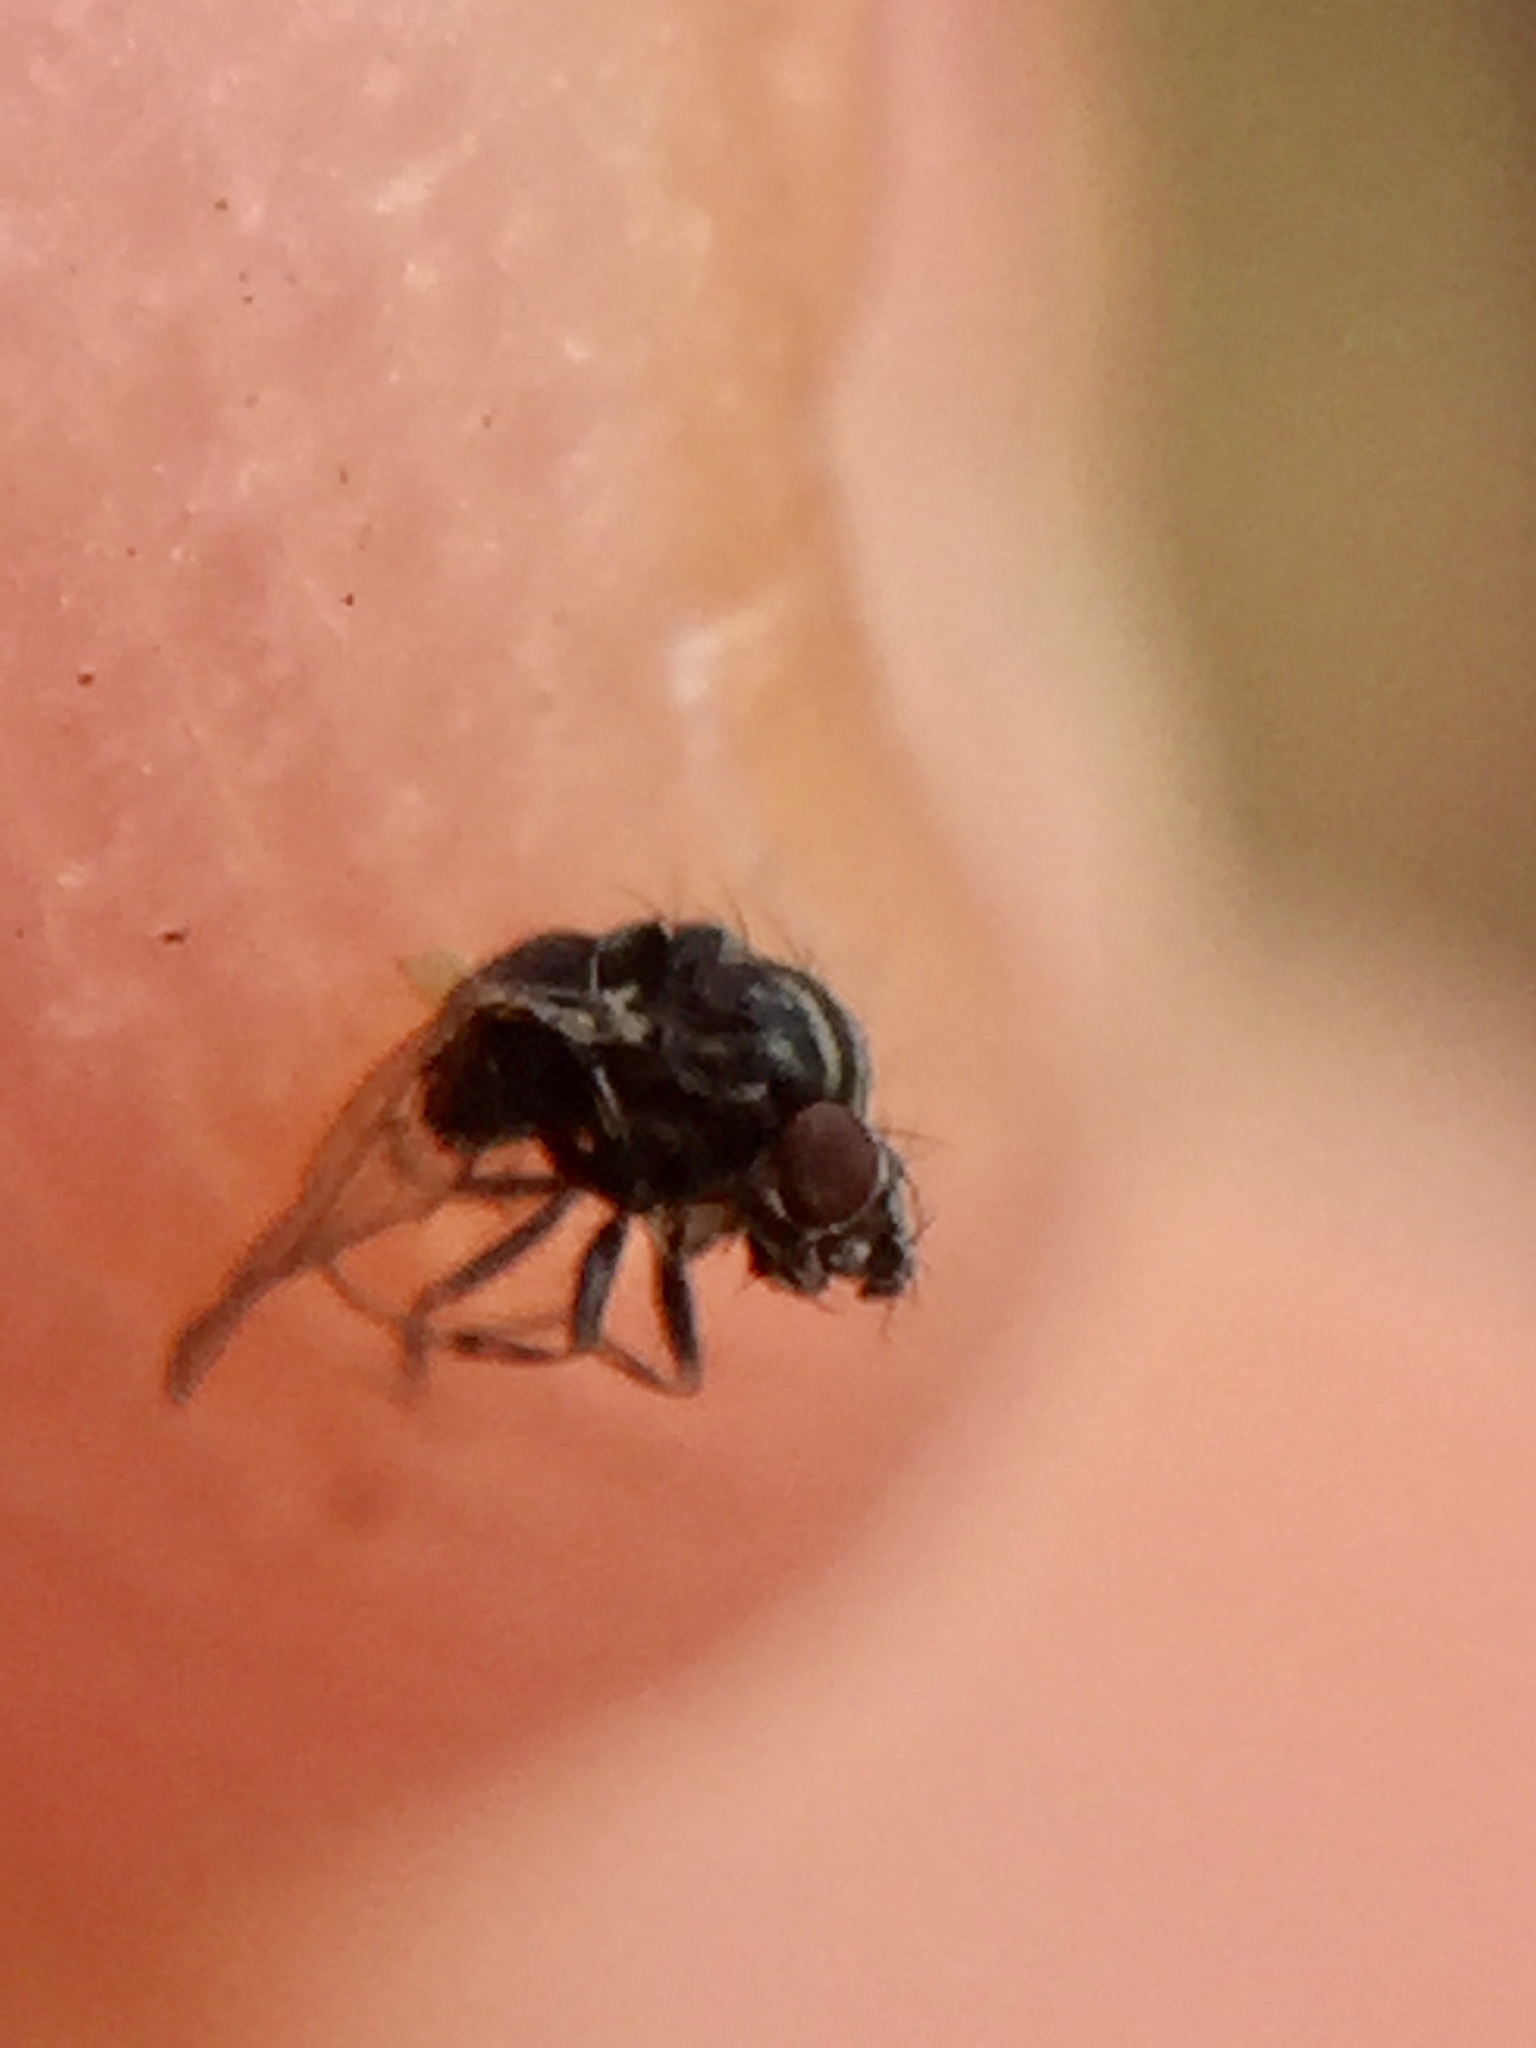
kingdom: Animalia
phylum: Arthropoda
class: Insecta
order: Diptera
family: Drosophilidae
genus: Dettopsomyia
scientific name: Dettopsomyia nigrovittata
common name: Pomace fly
